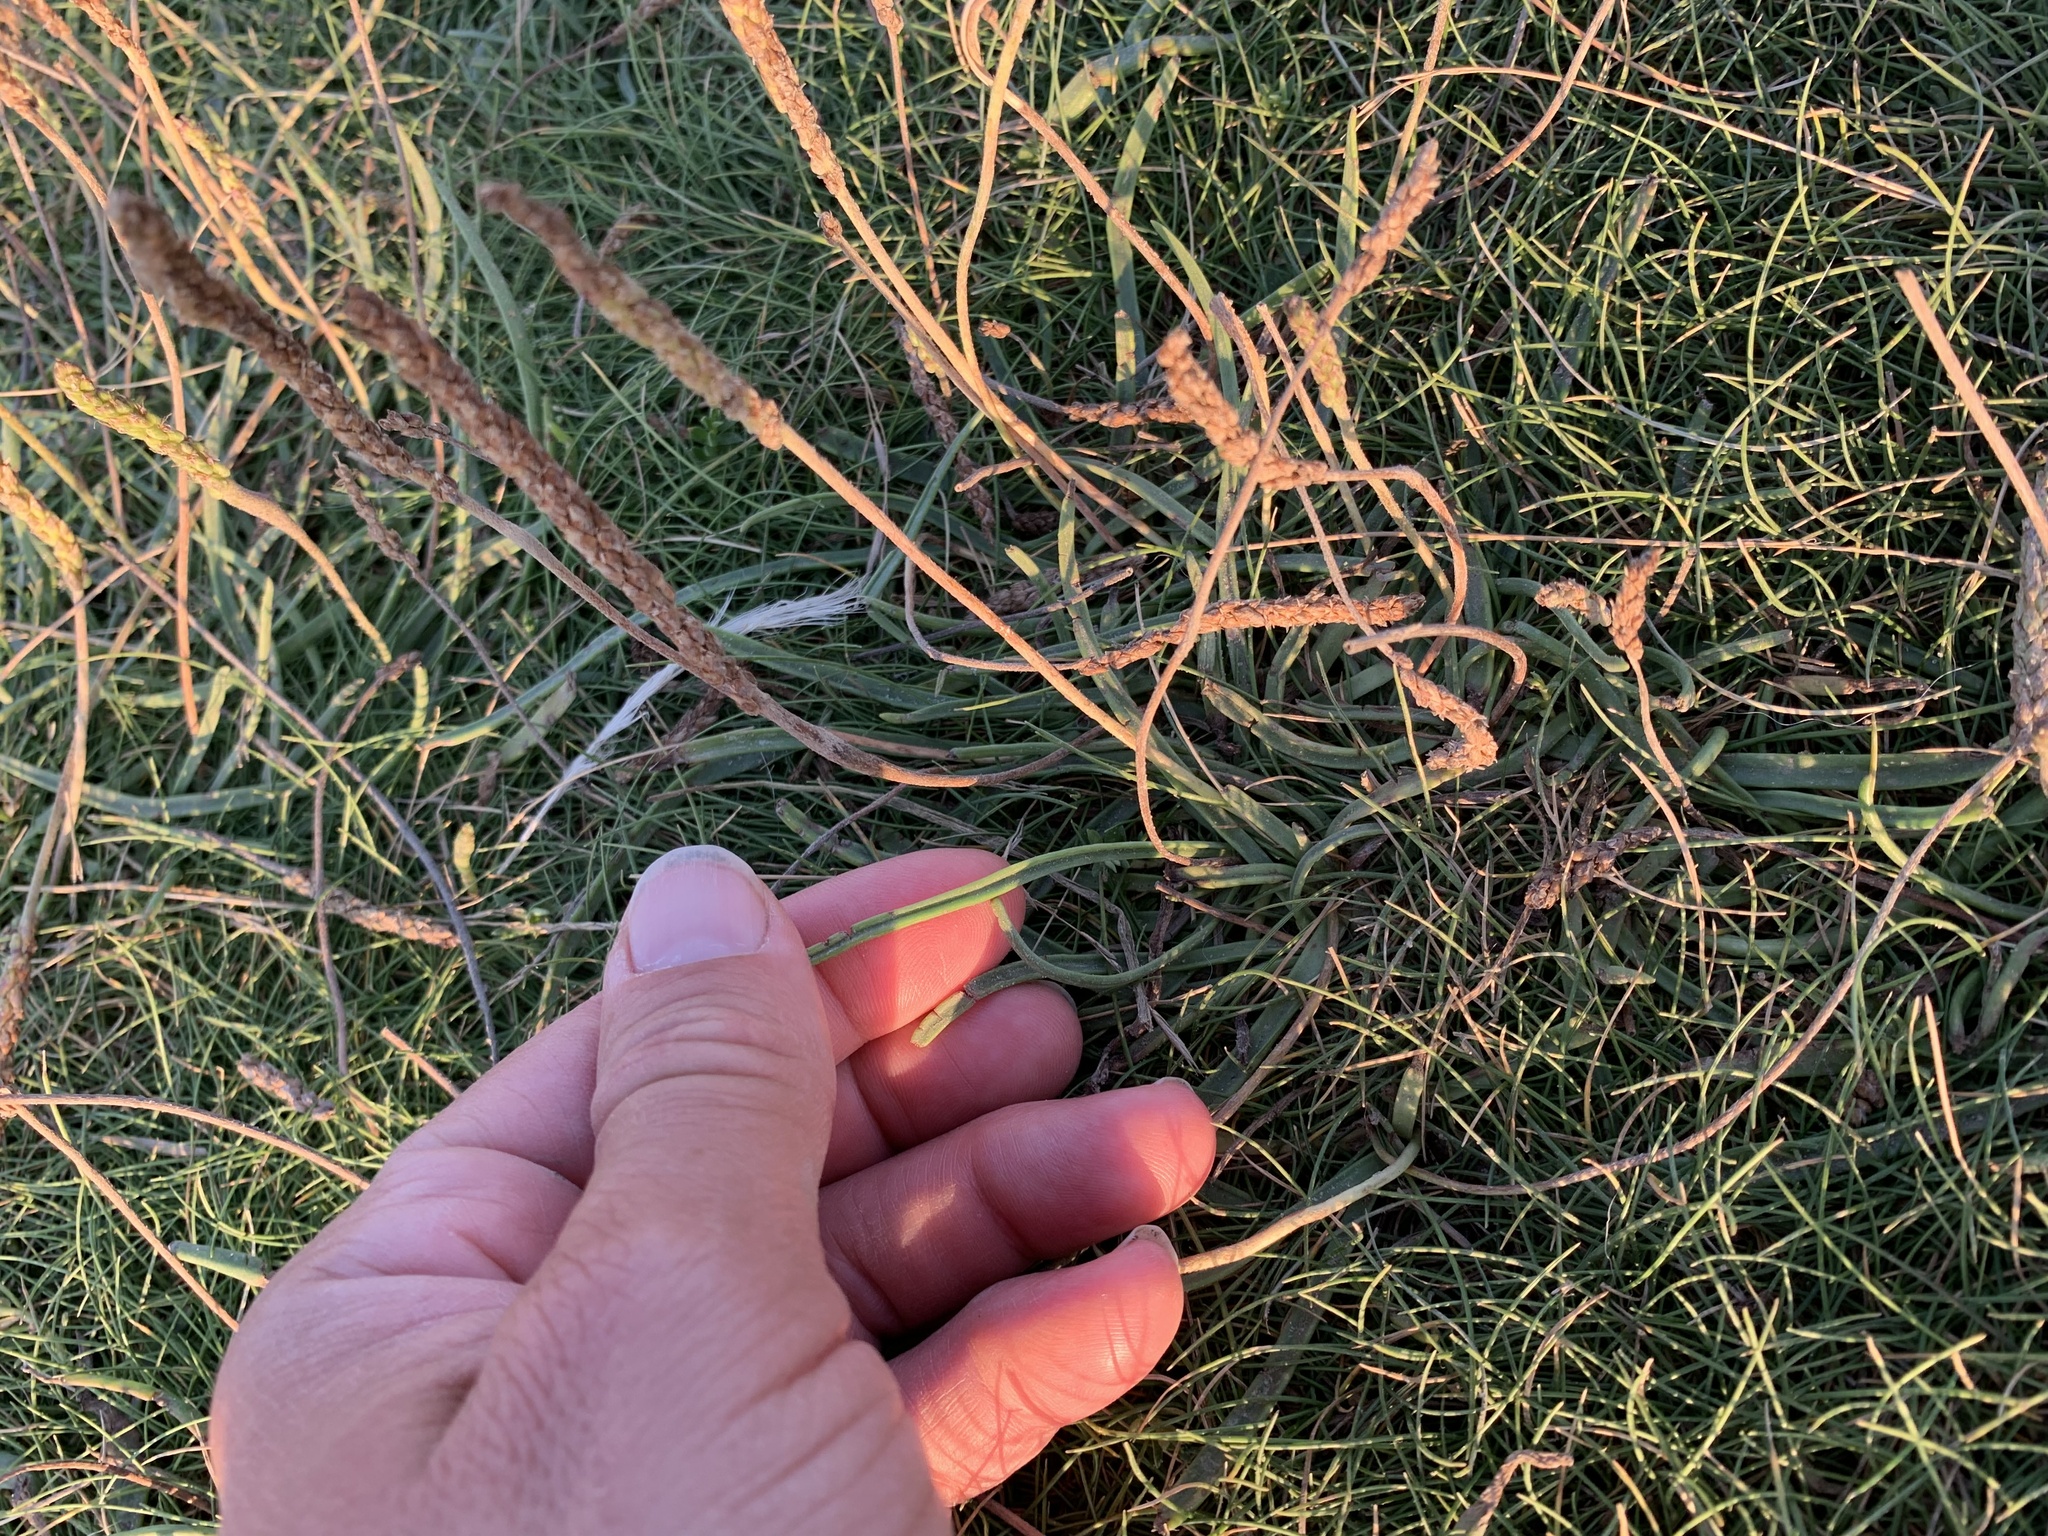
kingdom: Plantae
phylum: Tracheophyta
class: Magnoliopsida
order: Lamiales
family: Plantaginaceae
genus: Plantago
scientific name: Plantago maritima
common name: Sea plantain
